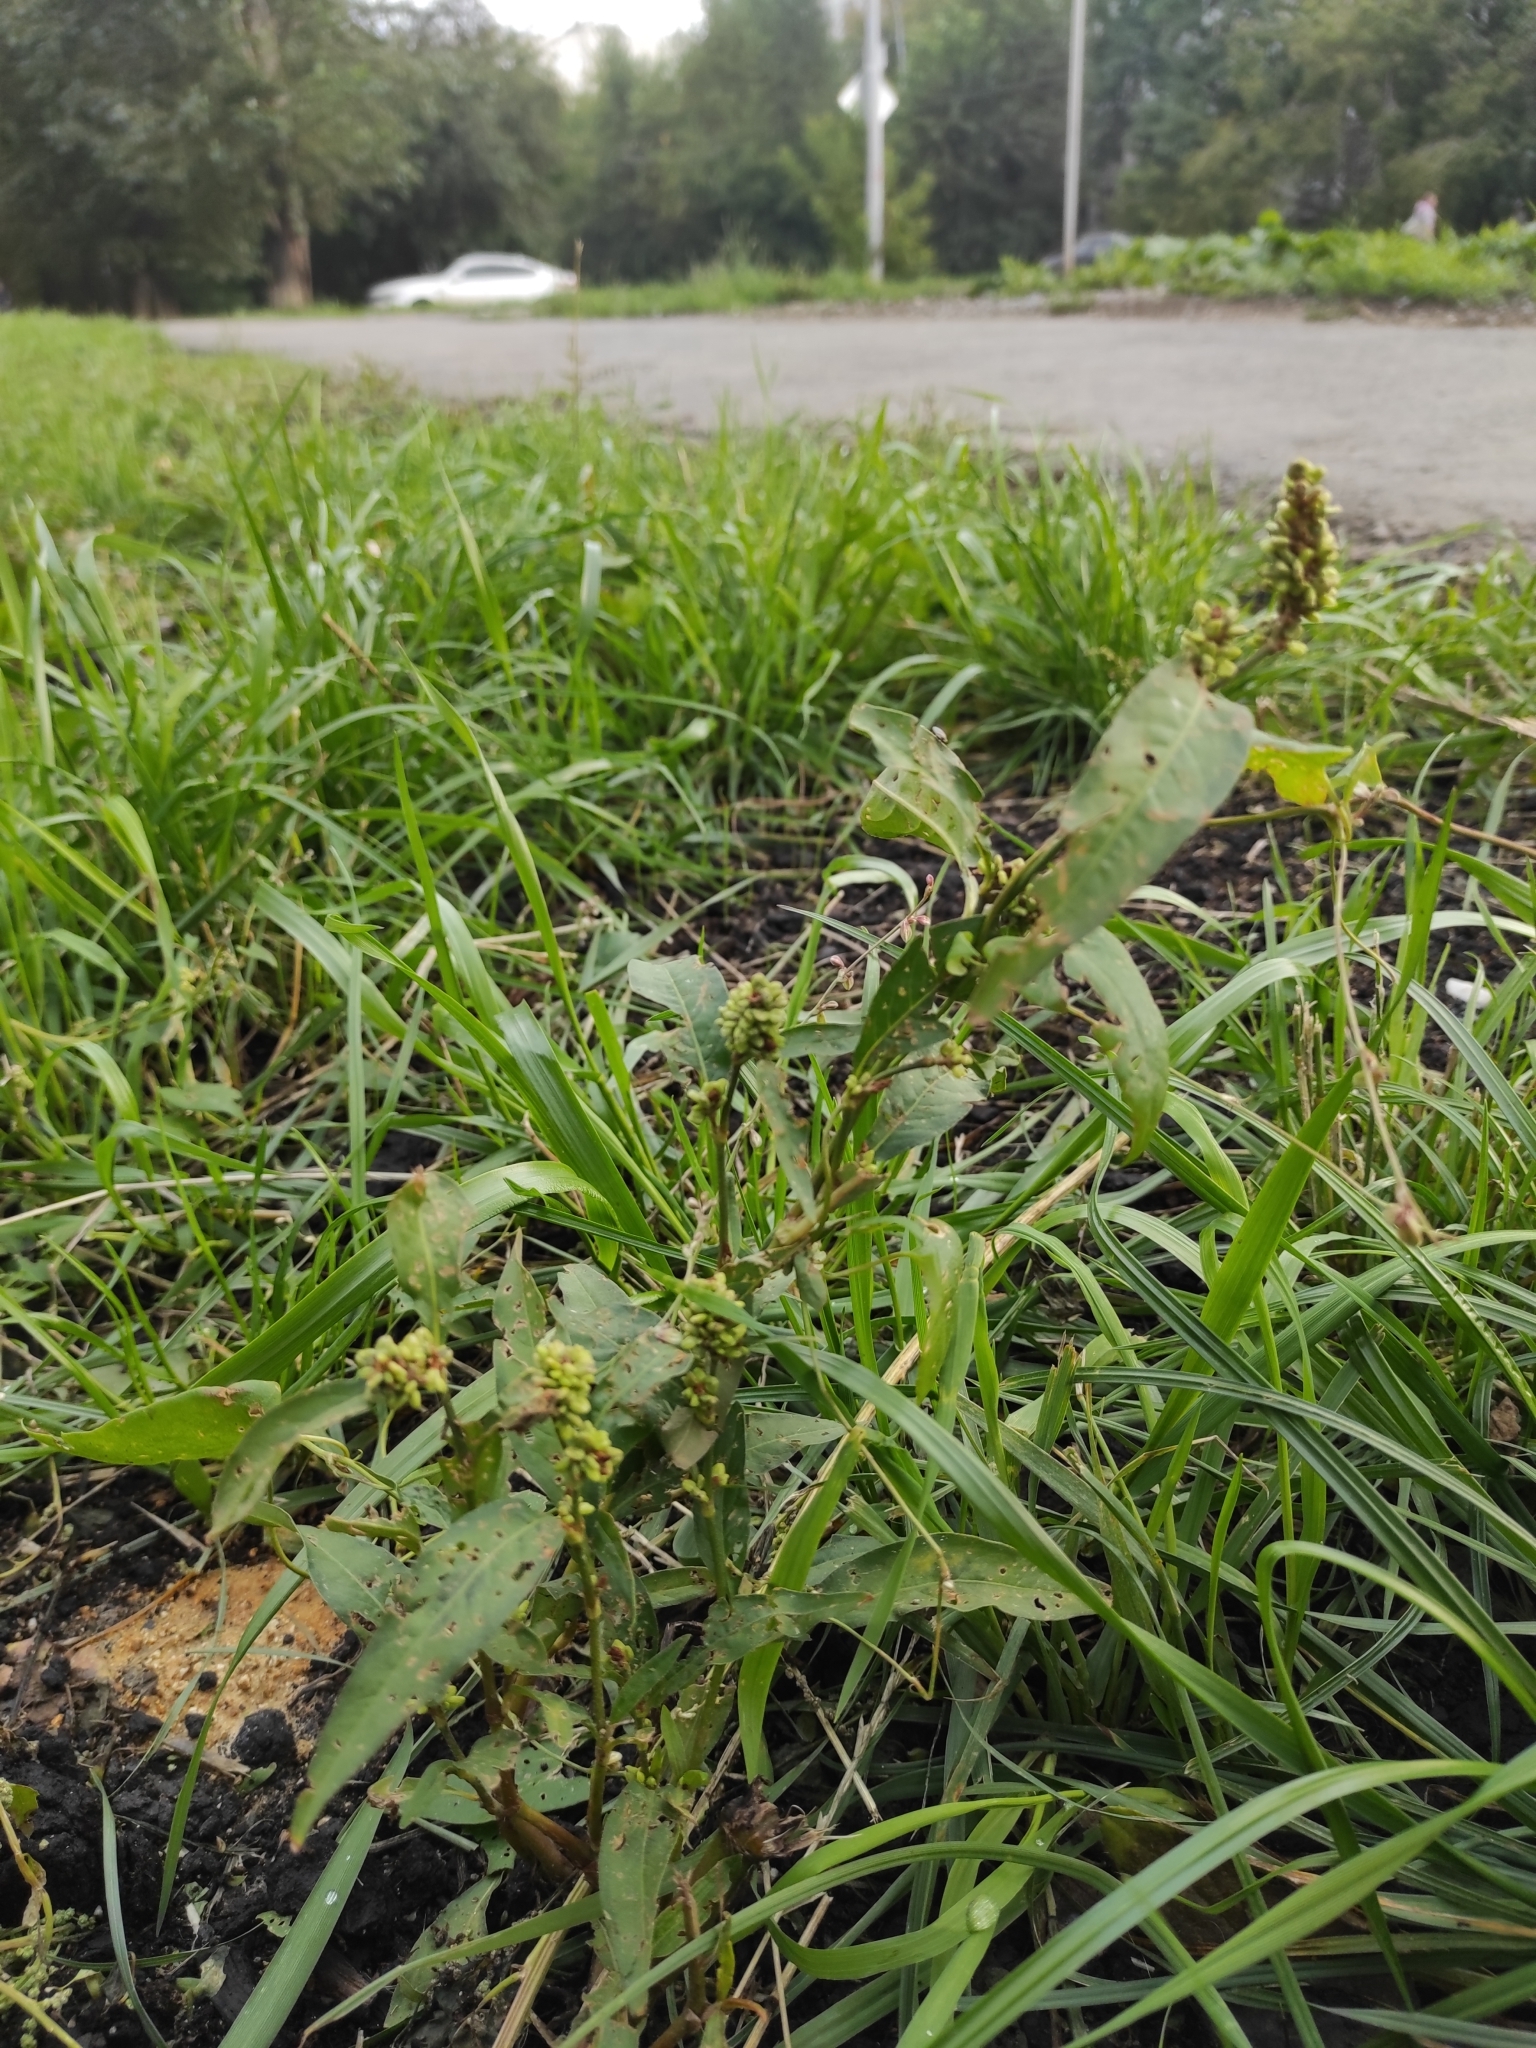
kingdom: Plantae
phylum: Tracheophyta
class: Magnoliopsida
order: Caryophyllales
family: Polygonaceae
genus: Persicaria
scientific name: Persicaria lapathifolia
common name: Curlytop knotweed
